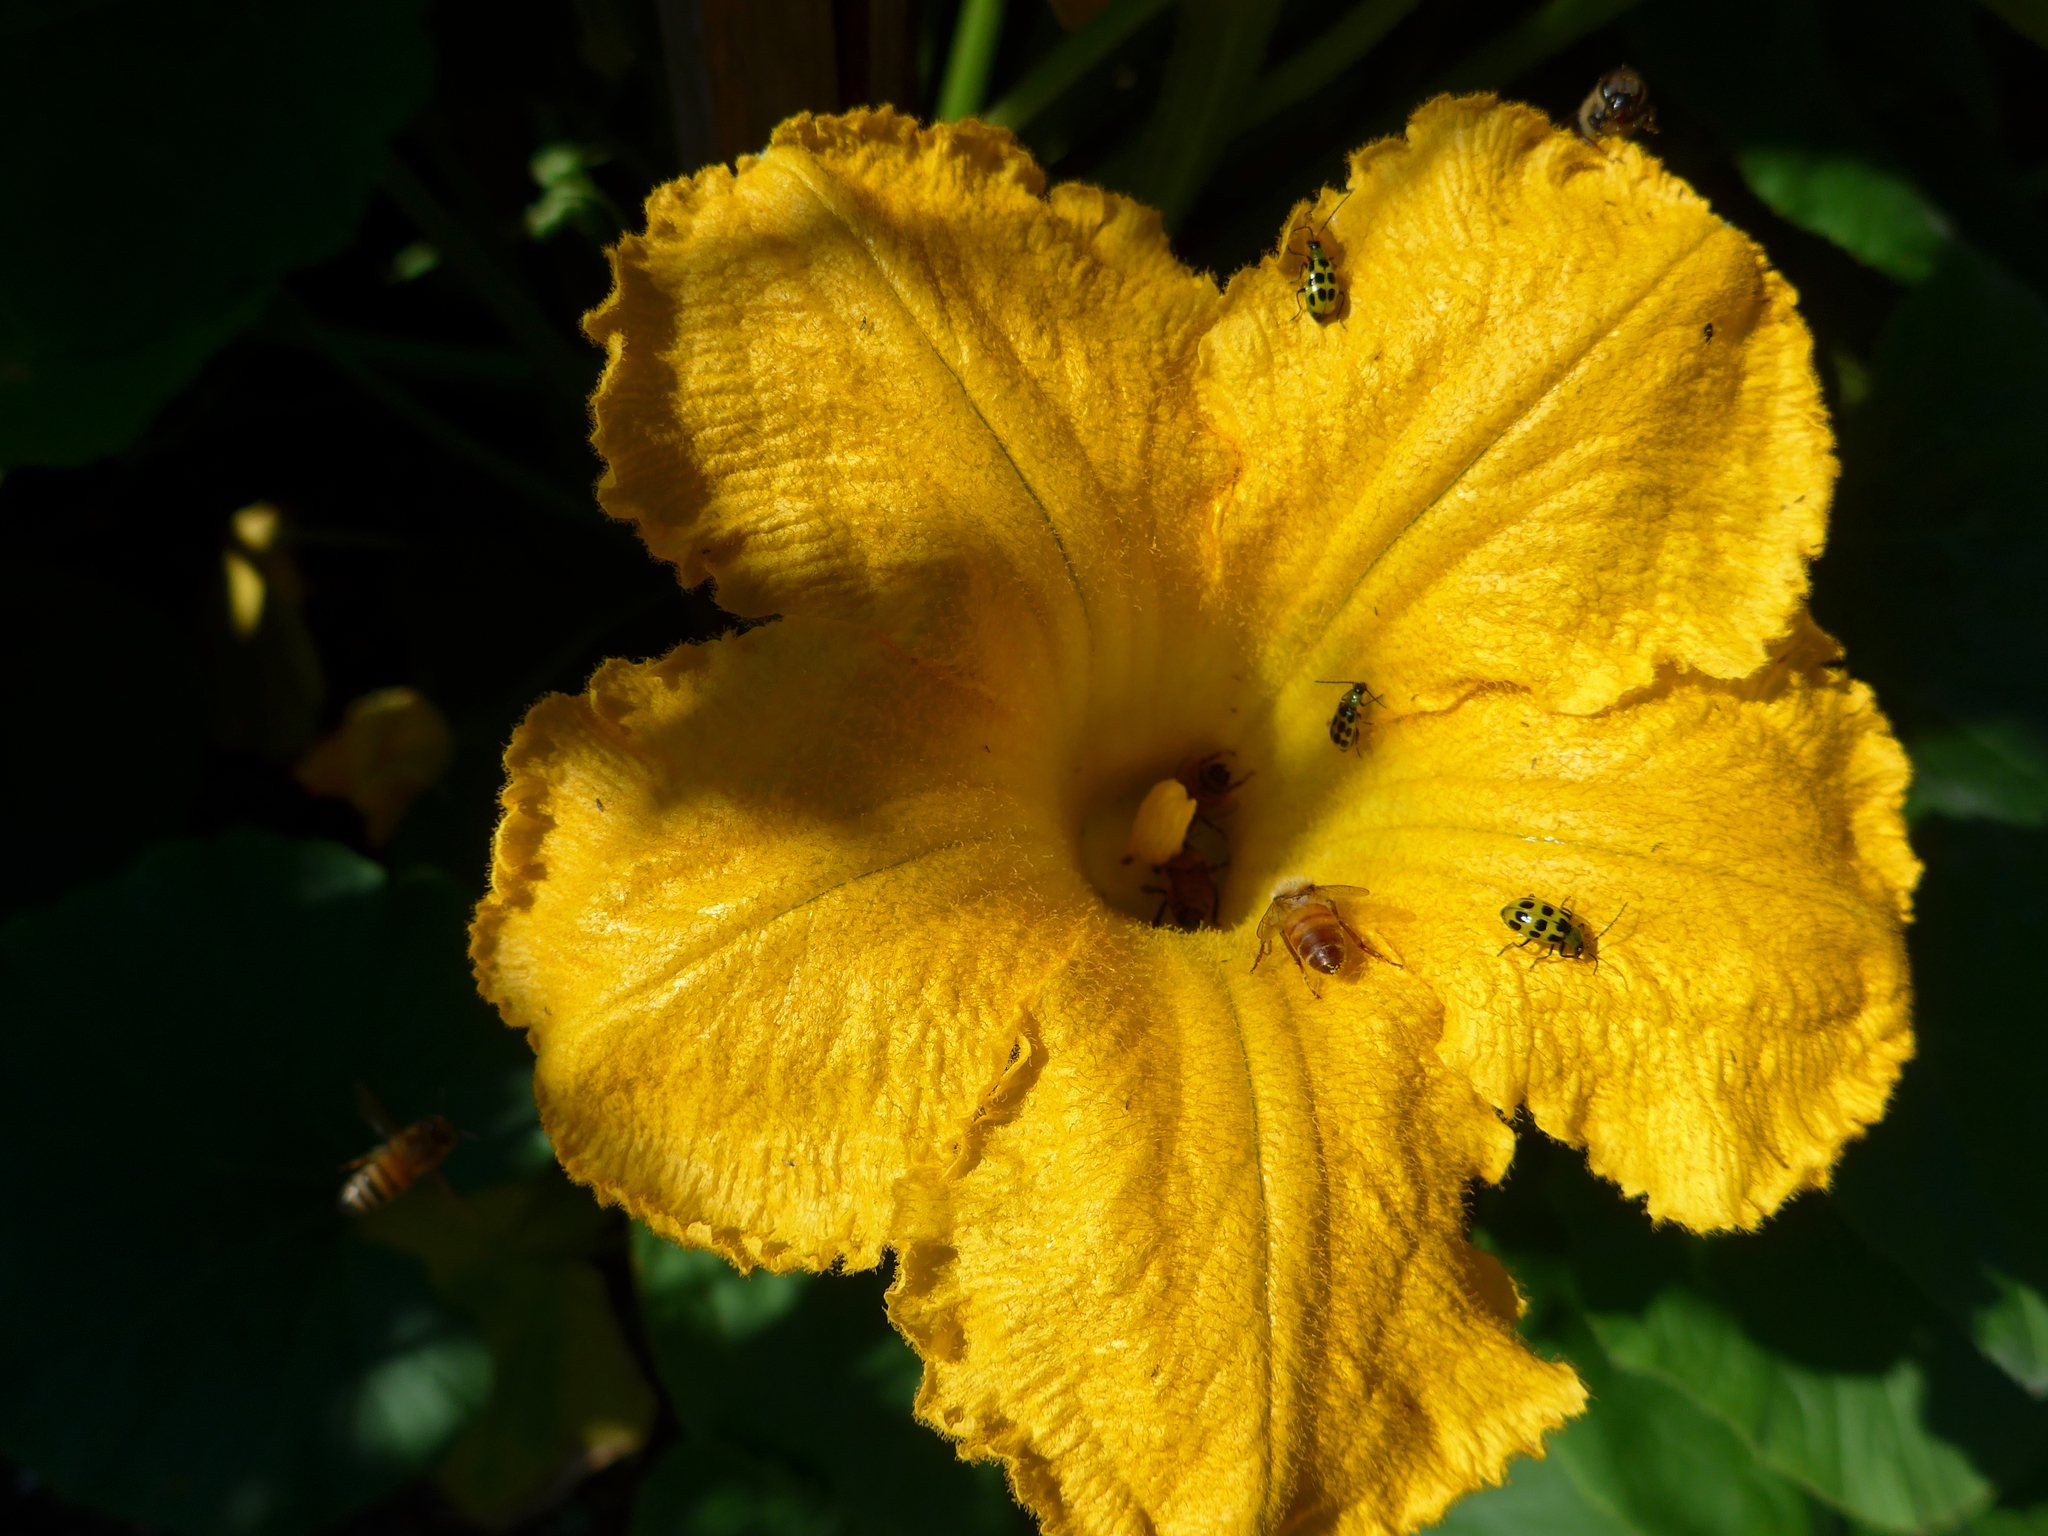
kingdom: Animalia
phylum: Arthropoda
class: Insecta
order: Coleoptera
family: Chrysomelidae
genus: Diabrotica
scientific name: Diabrotica undecimpunctata
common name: Spotted cucumber beetle
